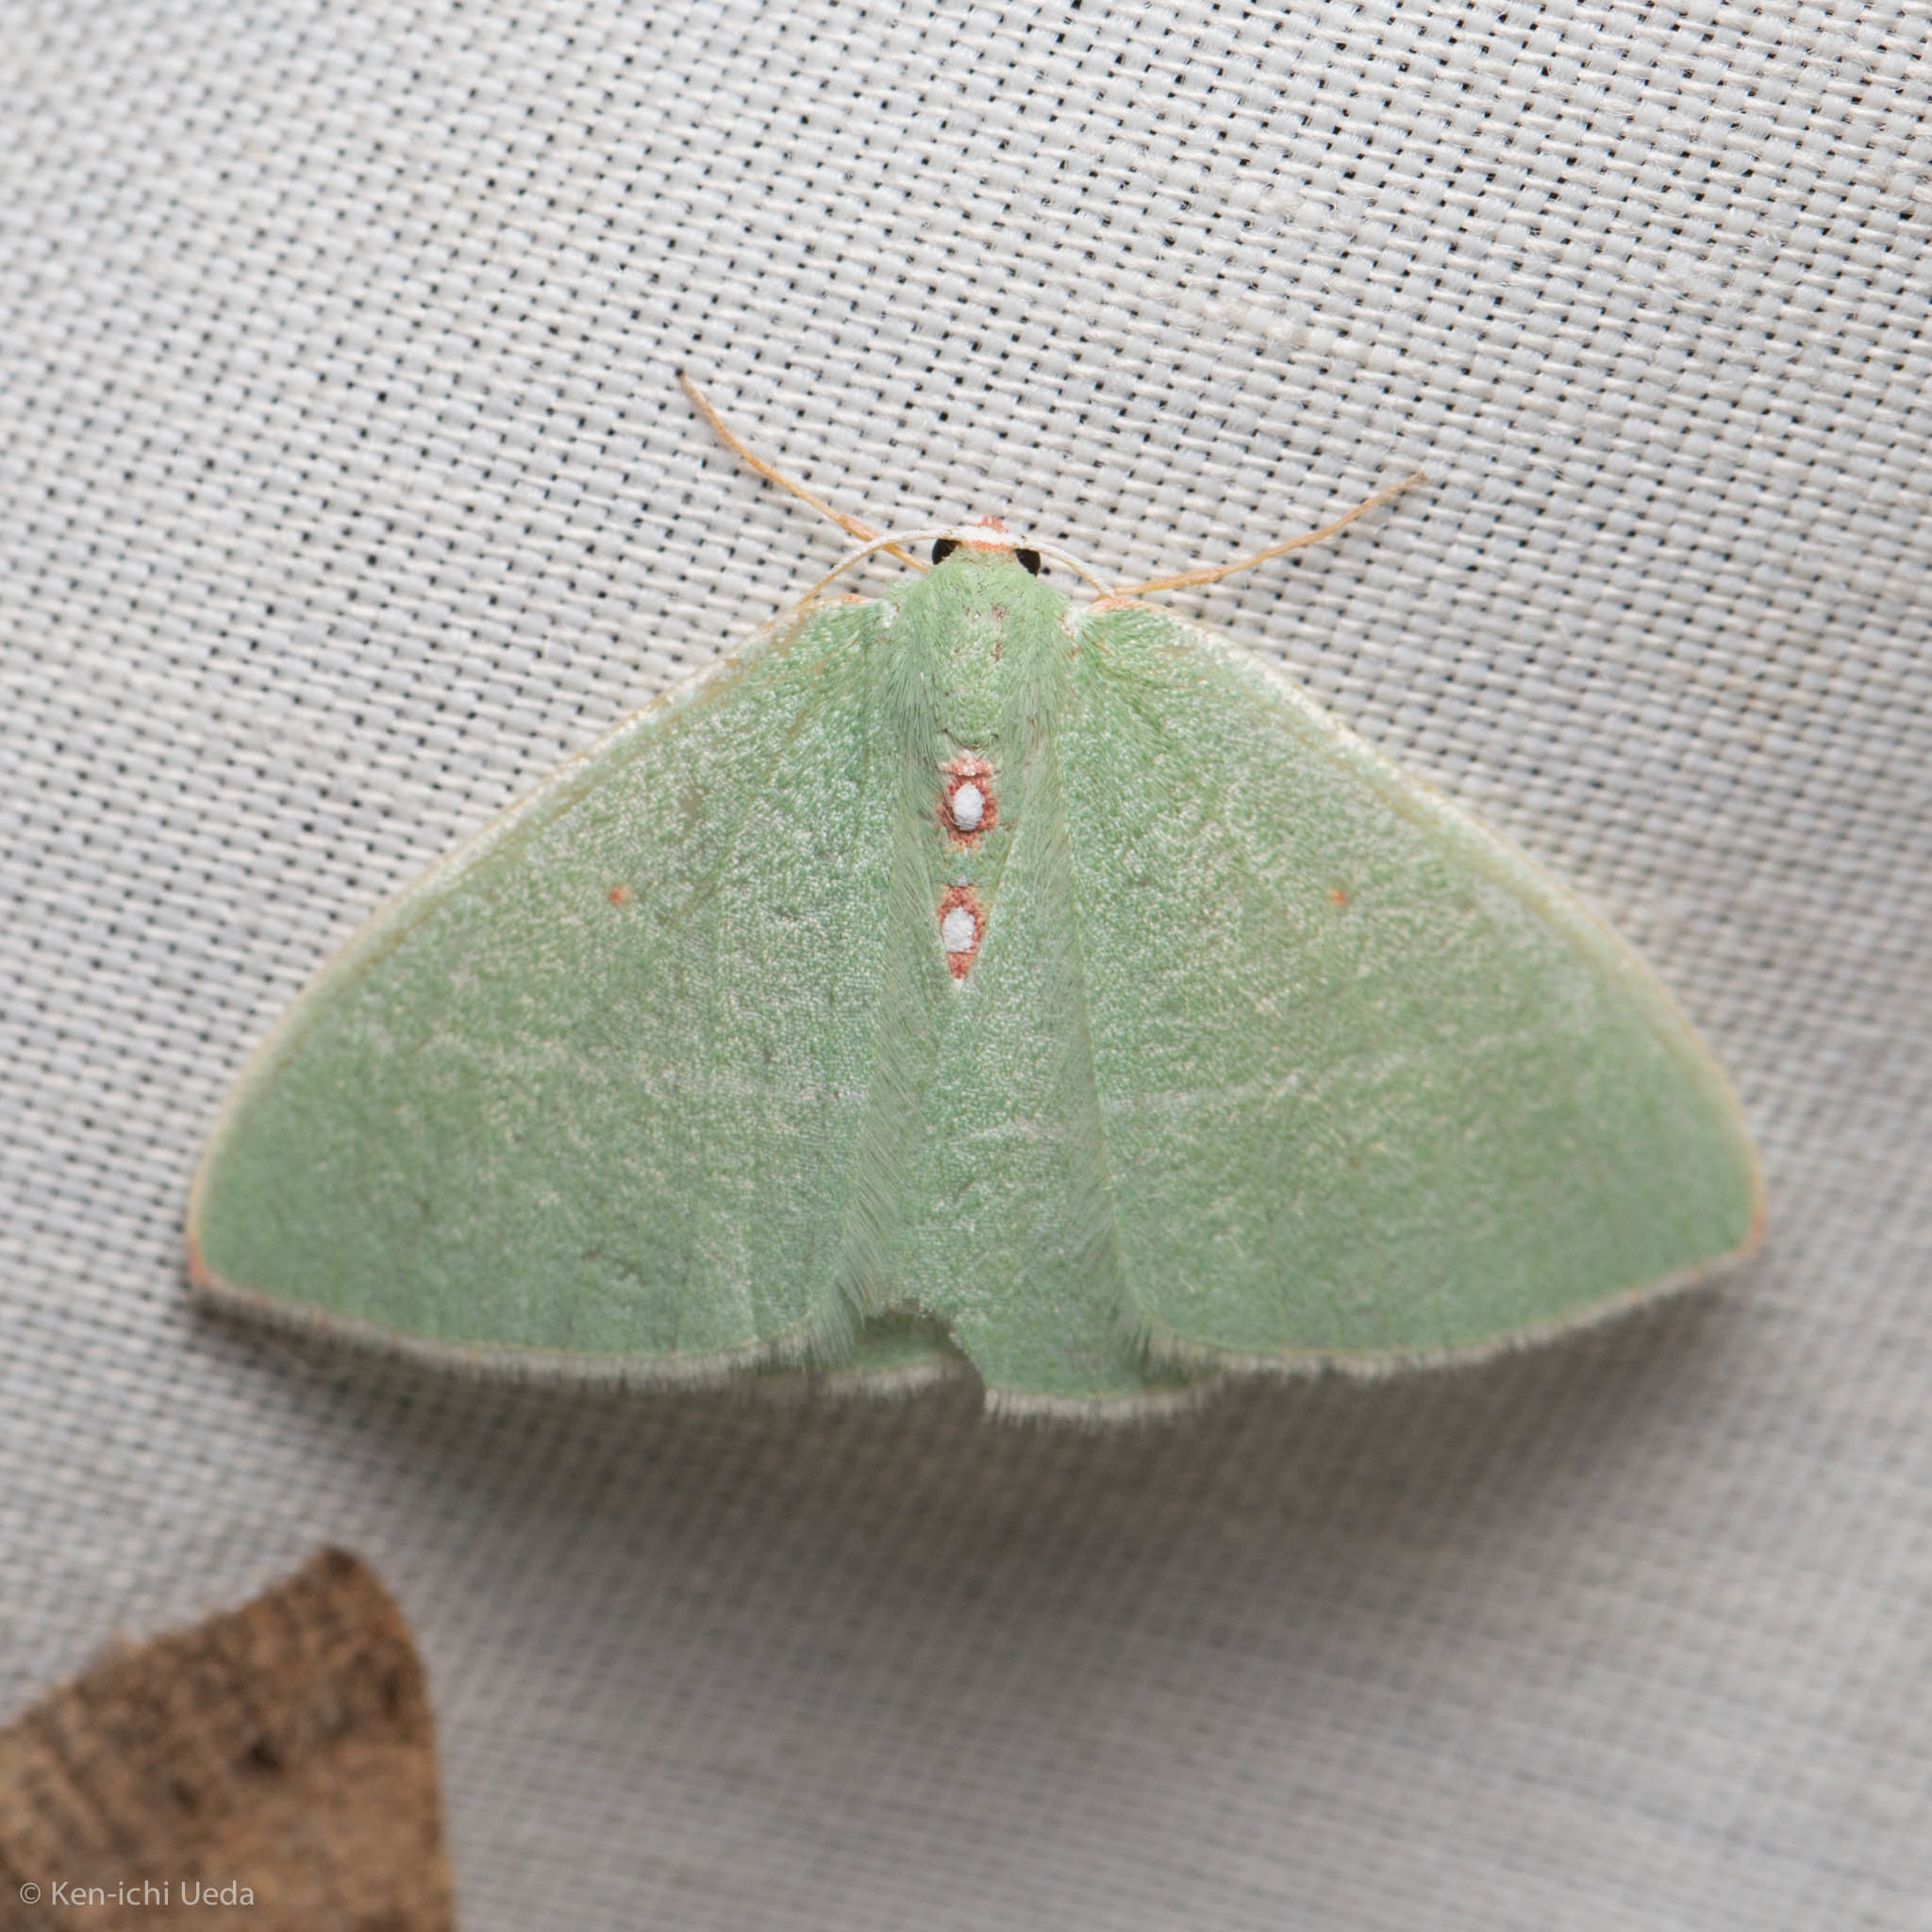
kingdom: Animalia
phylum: Arthropoda
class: Insecta
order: Lepidoptera
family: Geometridae
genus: Nemoria
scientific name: Nemoria darwiniata
